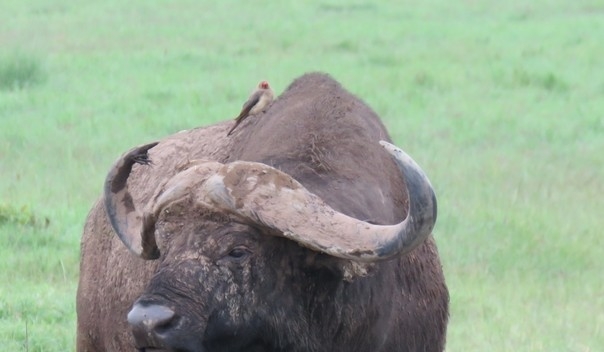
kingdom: Animalia
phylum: Chordata
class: Aves
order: Passeriformes
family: Buphagidae
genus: Buphagus
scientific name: Buphagus erythrorhynchus
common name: Red-billed oxpecker
